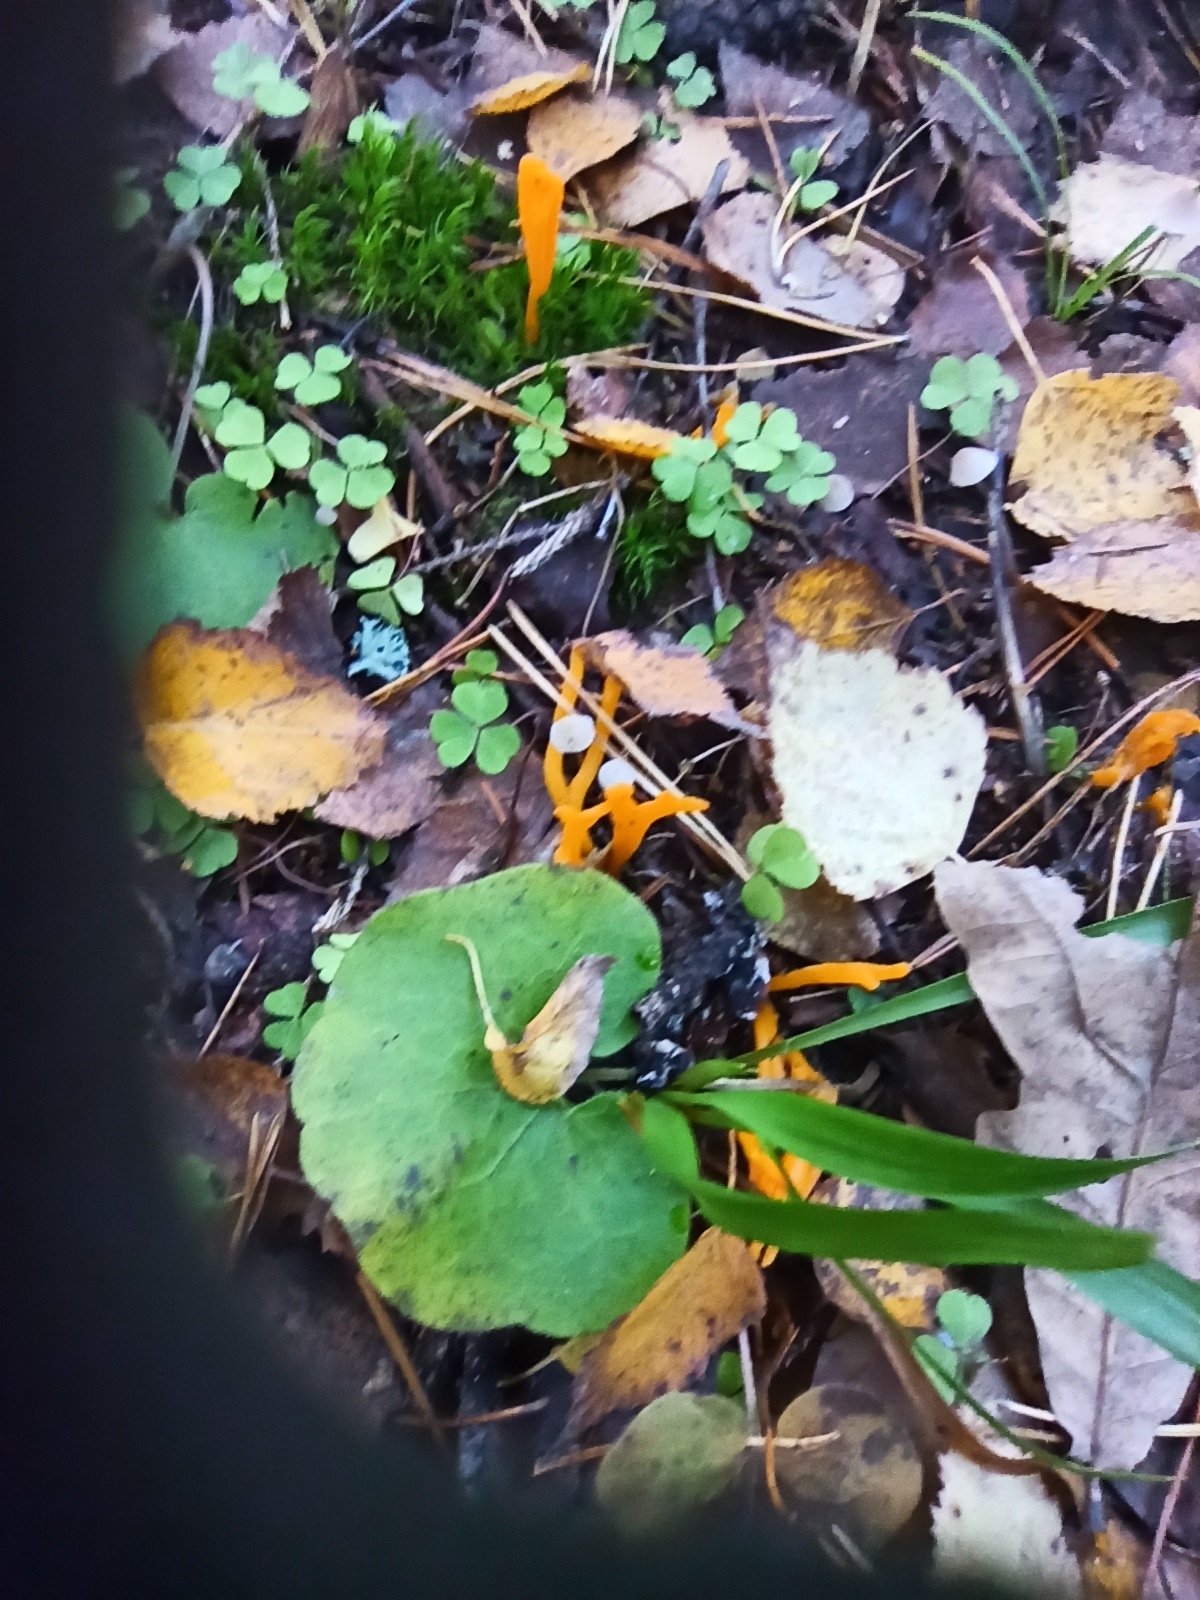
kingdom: Fungi
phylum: Basidiomycota
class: Dacrymycetes
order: Dacrymycetales
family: Dacrymycetaceae
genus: Calocera
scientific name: Calocera viscosa
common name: Yellow stagshorn
